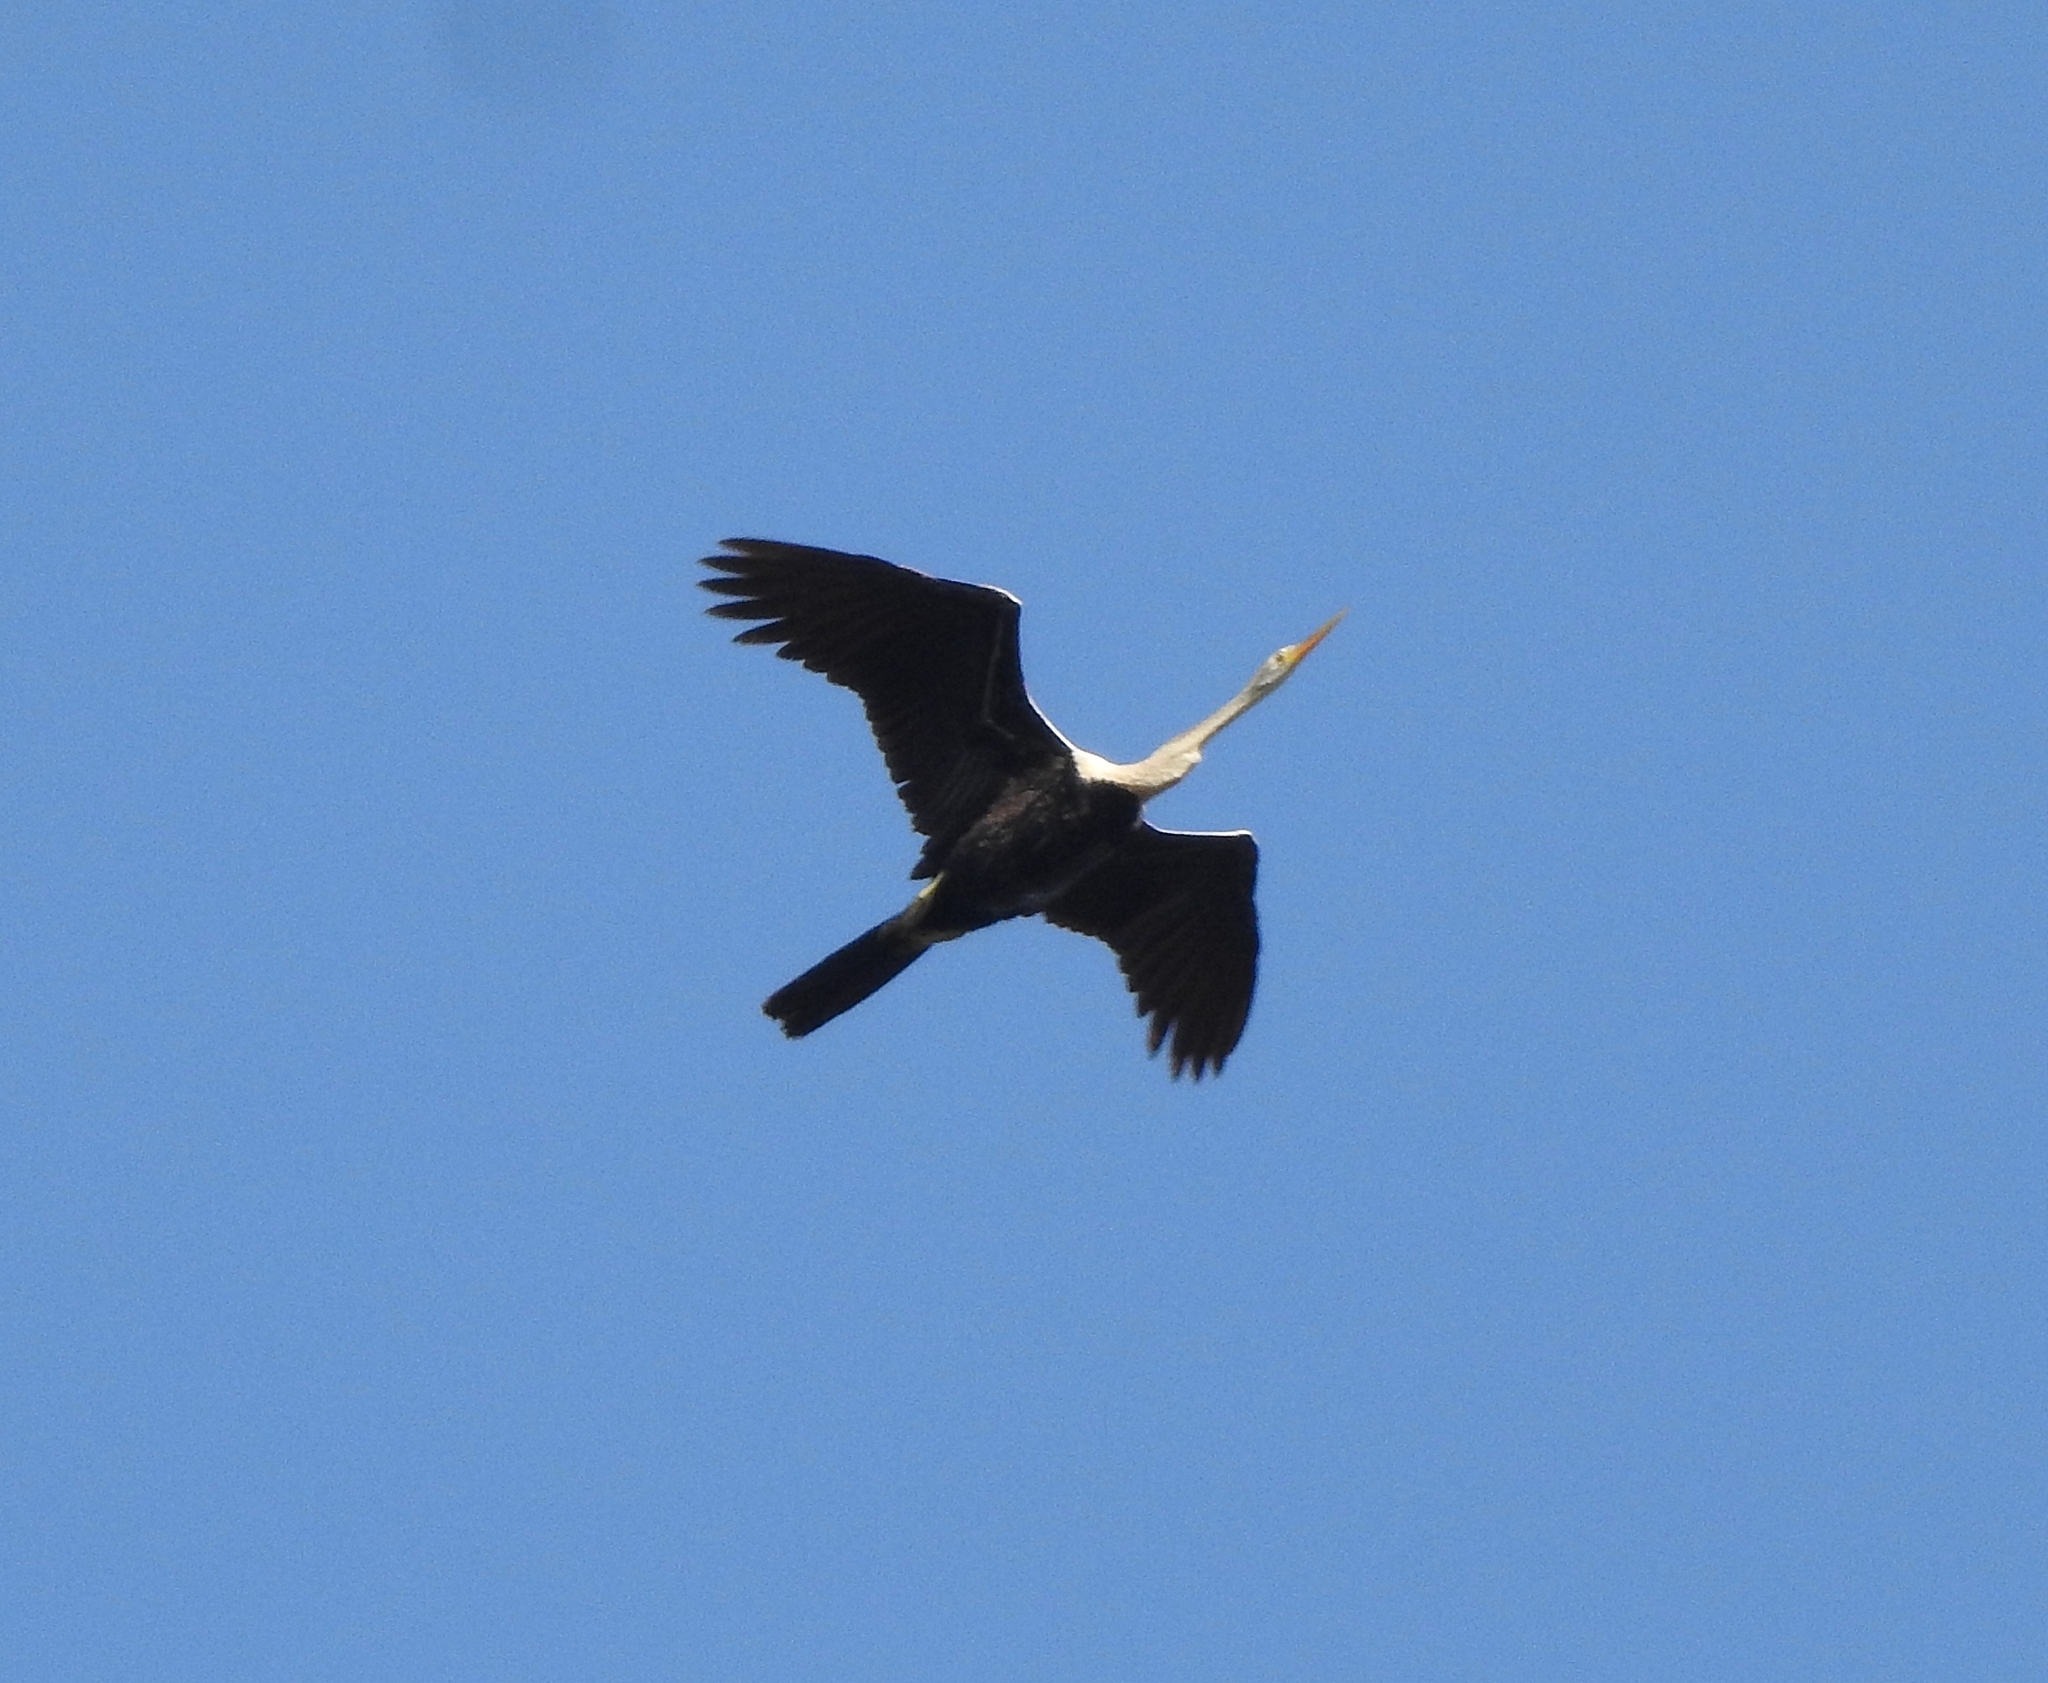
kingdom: Animalia
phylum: Chordata
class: Aves
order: Suliformes
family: Anhingidae
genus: Anhinga
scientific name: Anhinga melanogaster
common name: Oriental darter
